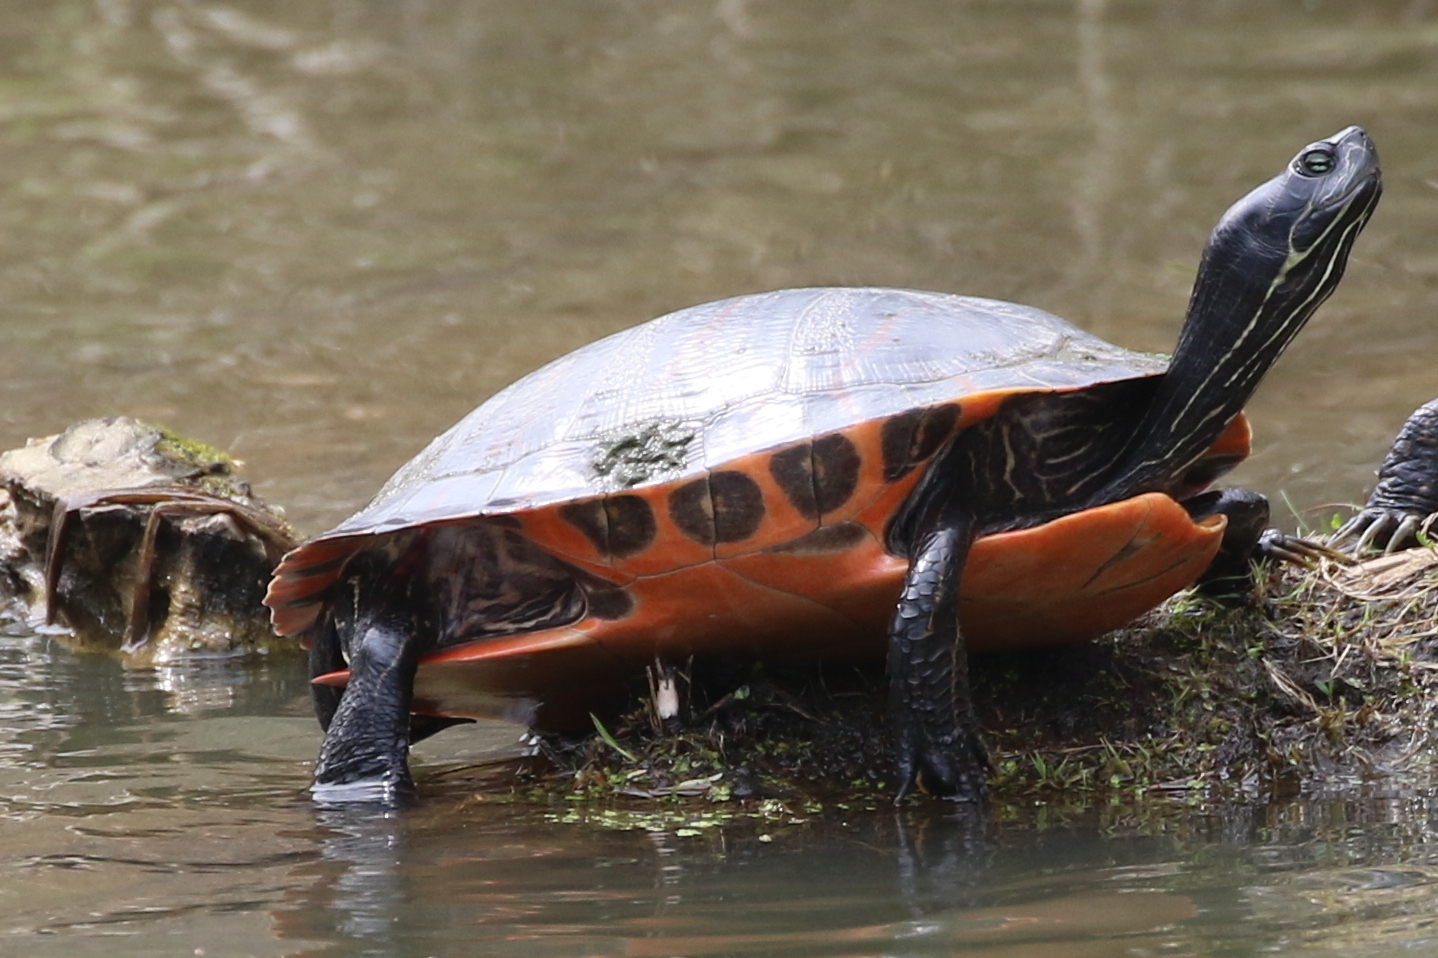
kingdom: Animalia
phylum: Chordata
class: Testudines
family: Emydidae
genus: Pseudemys
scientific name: Pseudemys rubriventris
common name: American red-bellied turtle
